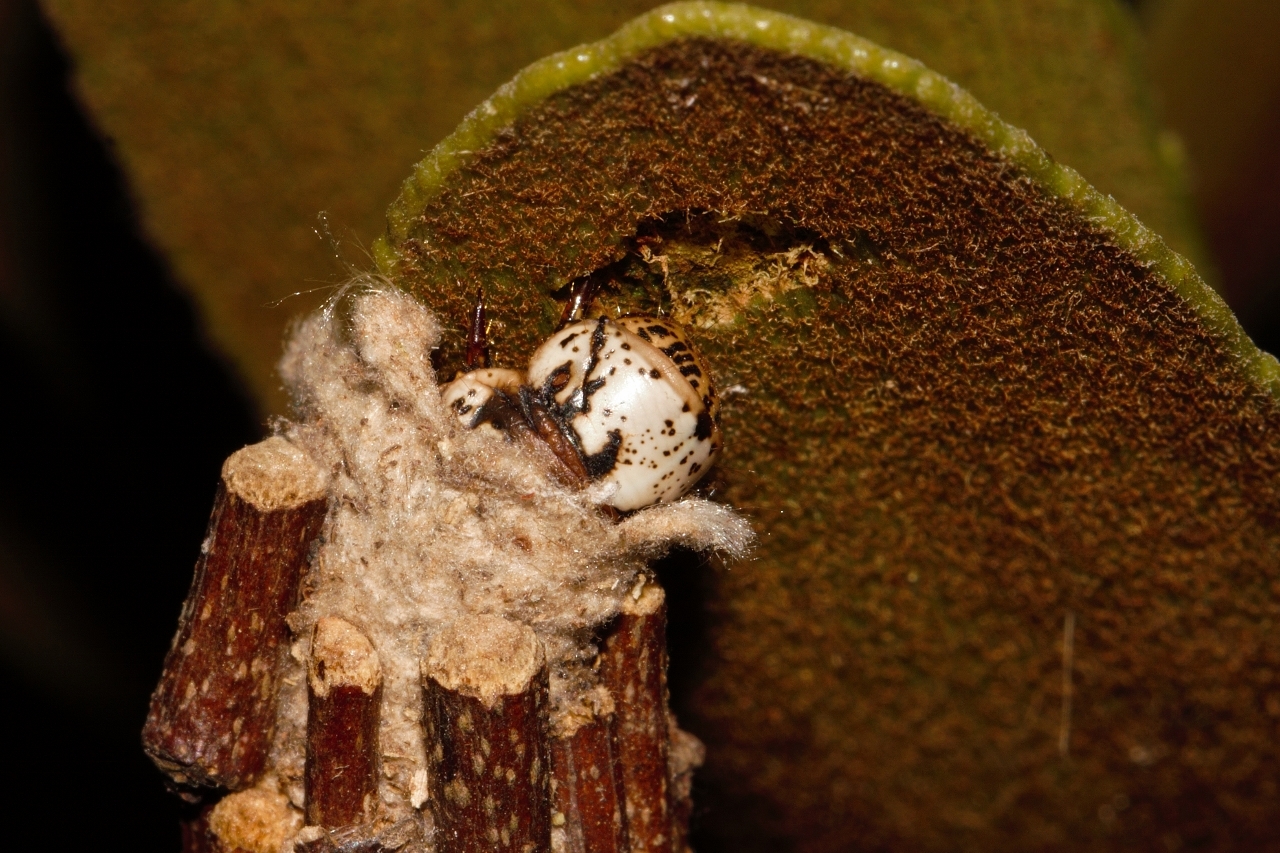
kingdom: Animalia
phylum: Arthropoda
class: Insecta
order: Lepidoptera
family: Psychidae
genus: Eumeta
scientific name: Eumeta hardenbergi
